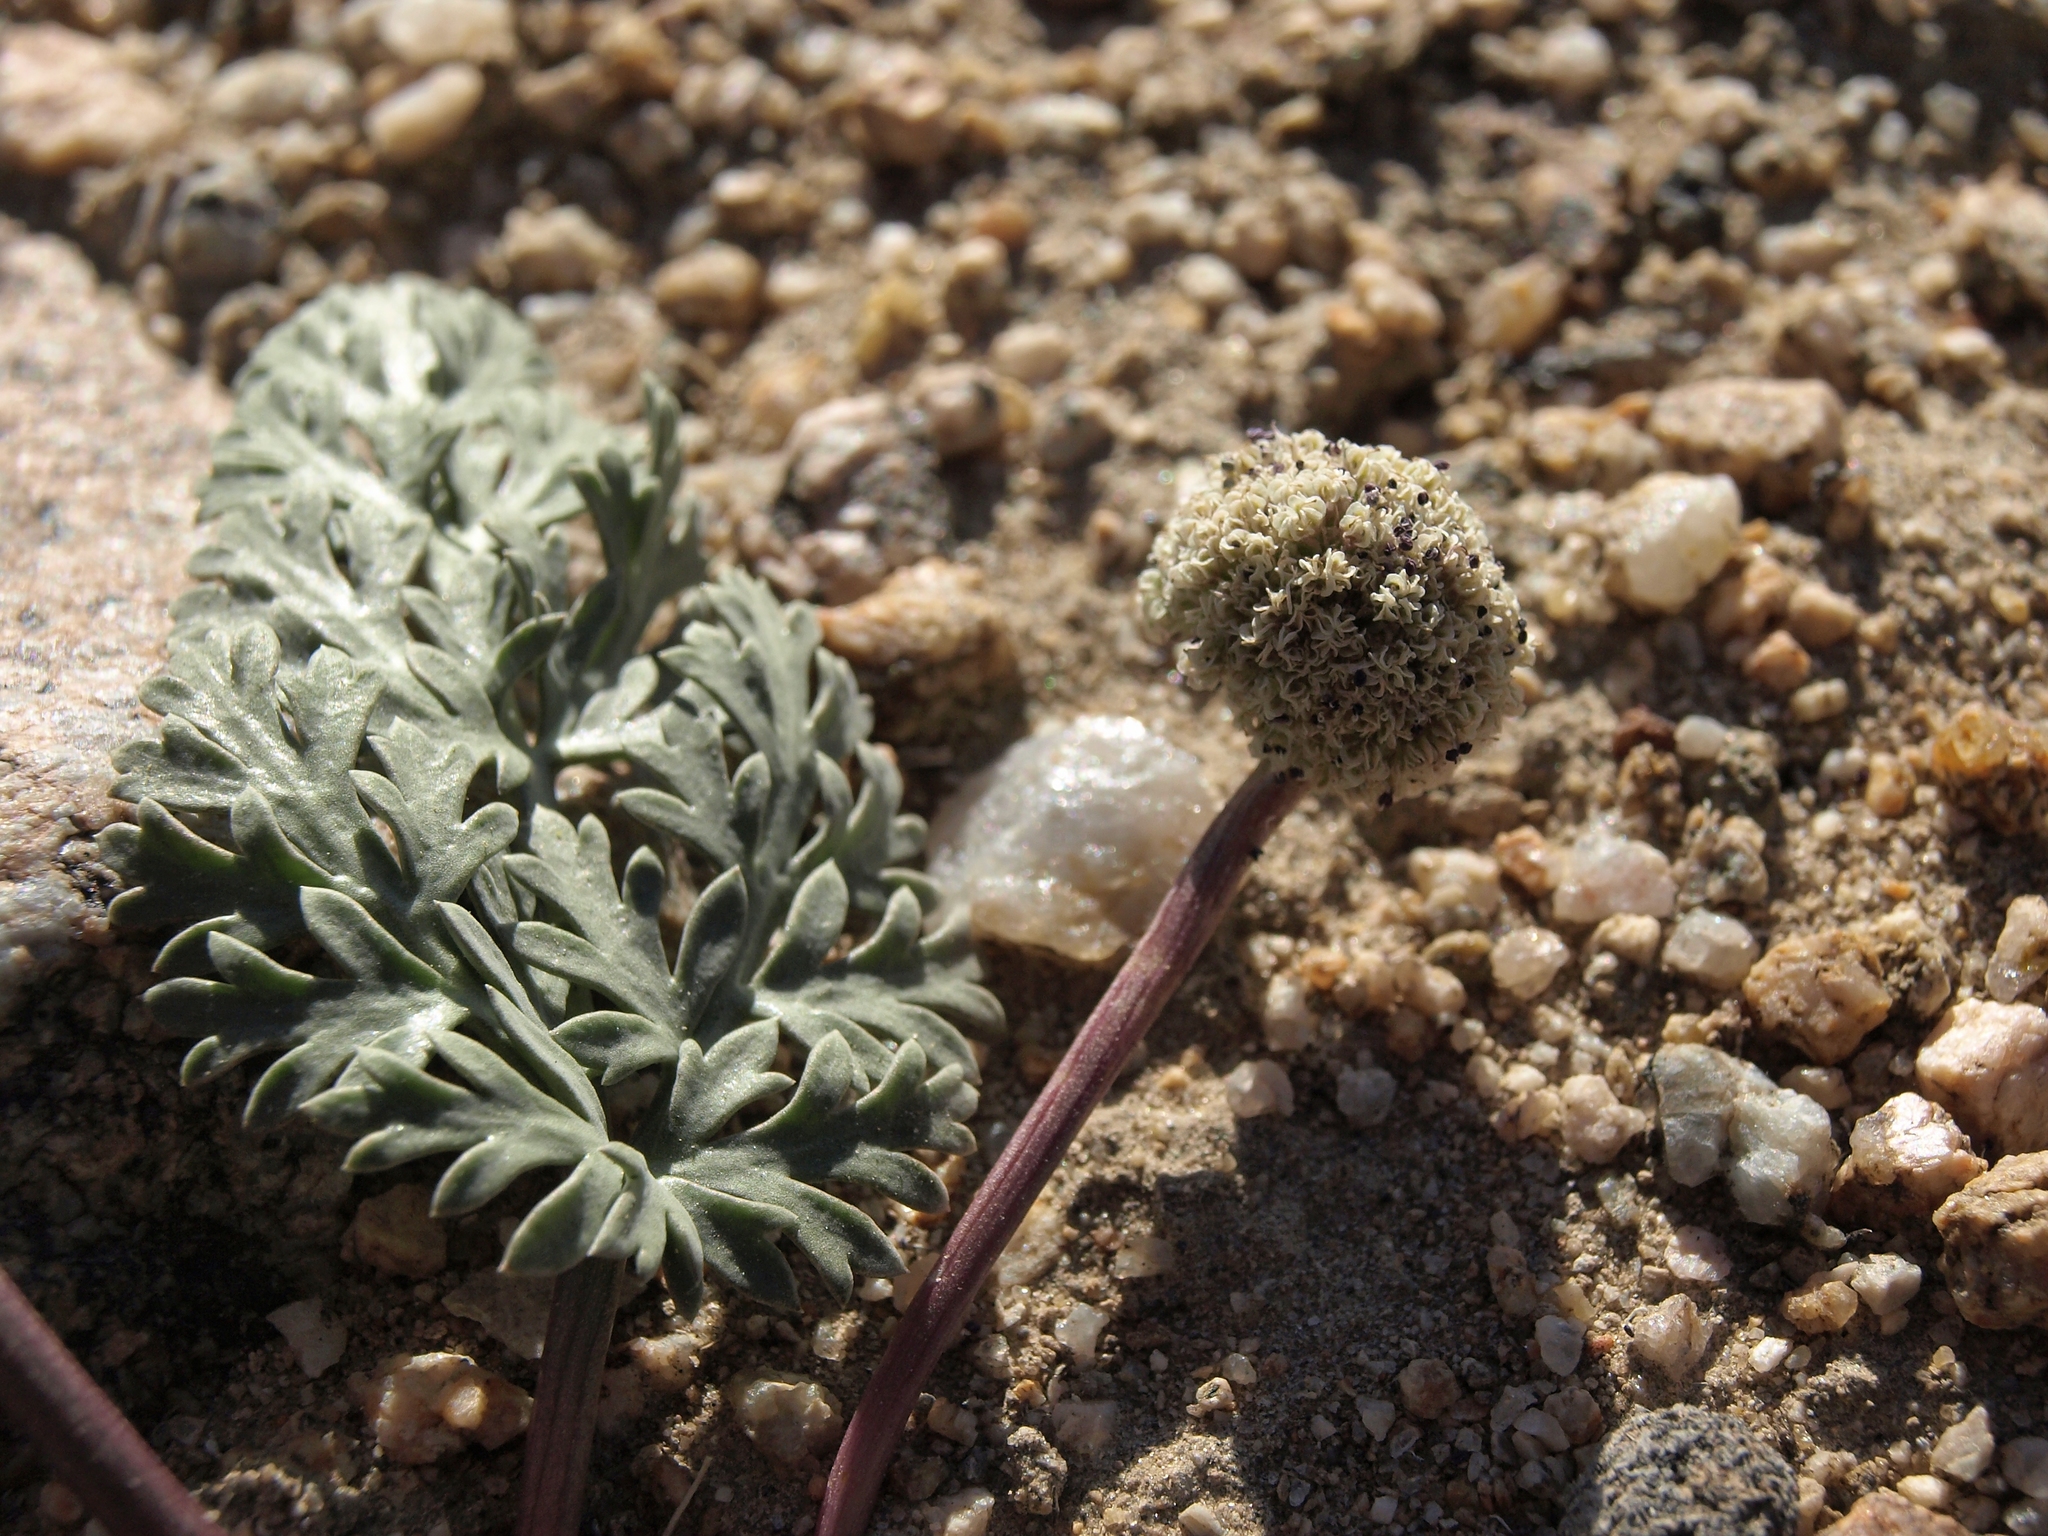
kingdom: Plantae
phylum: Tracheophyta
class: Magnoliopsida
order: Apiales
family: Apiaceae
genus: Cymopterus
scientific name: Cymopterus globosus
